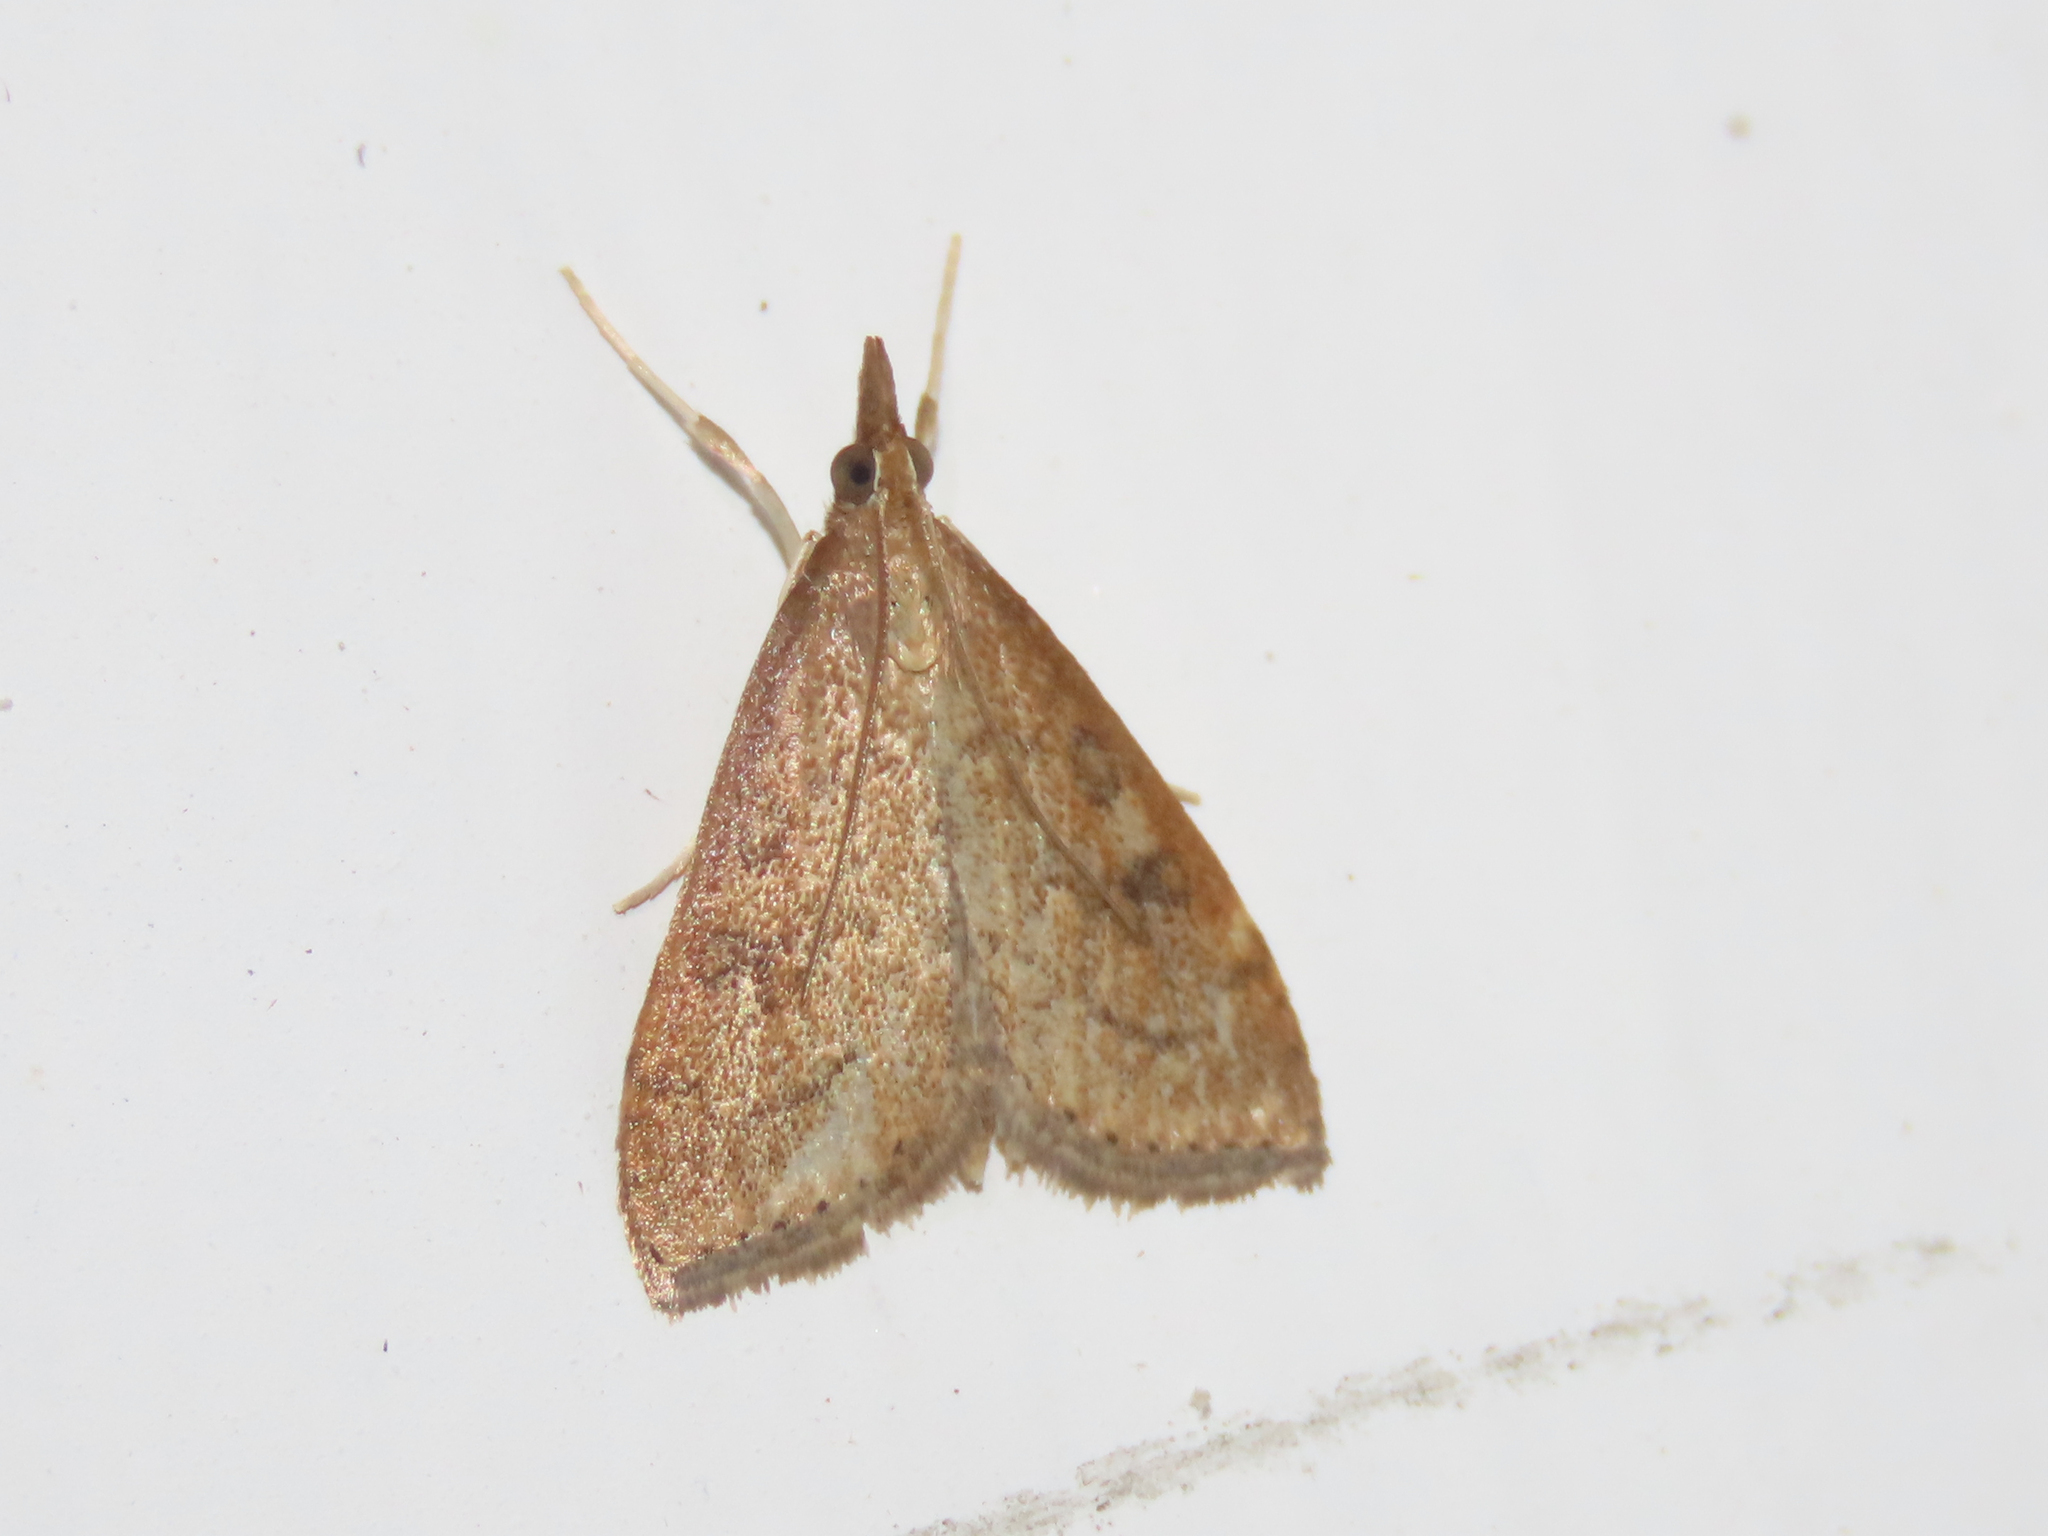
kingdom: Animalia
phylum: Arthropoda
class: Insecta
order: Lepidoptera
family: Crambidae
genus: Udea
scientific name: Udea rubigalis
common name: Celery leaftier moth
